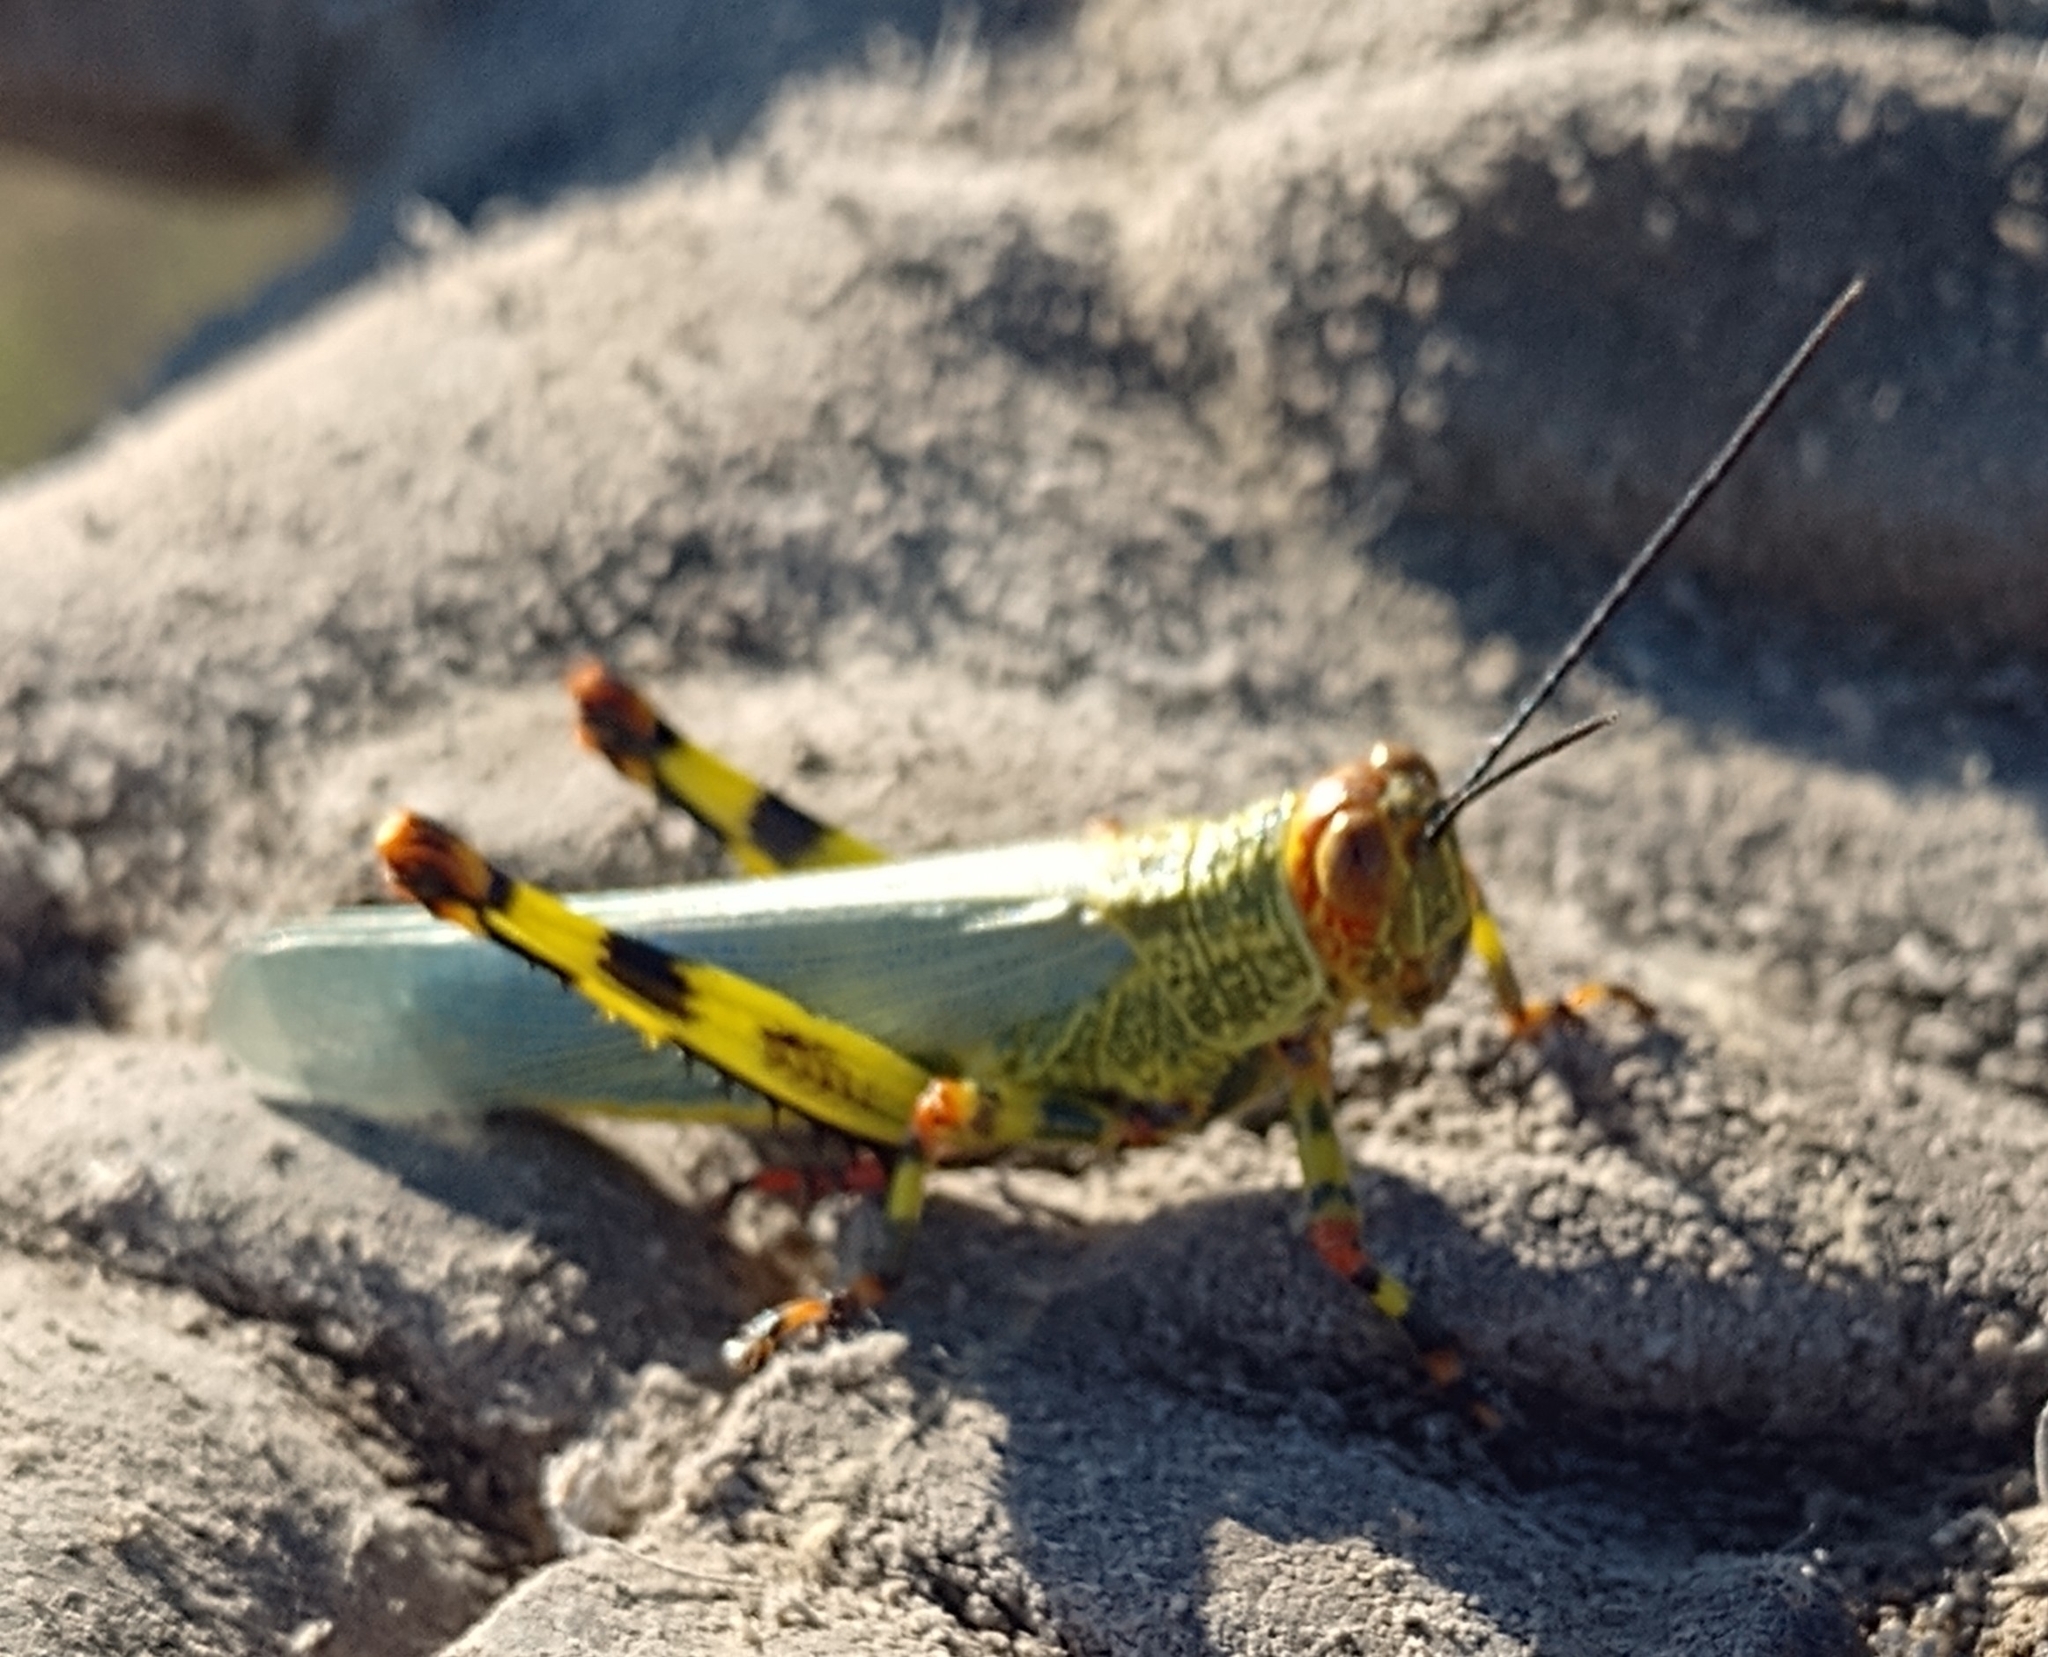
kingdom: Animalia
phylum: Arthropoda
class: Insecta
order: Orthoptera
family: Romaleidae
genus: Zoniopoda
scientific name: Zoniopoda tarsata
